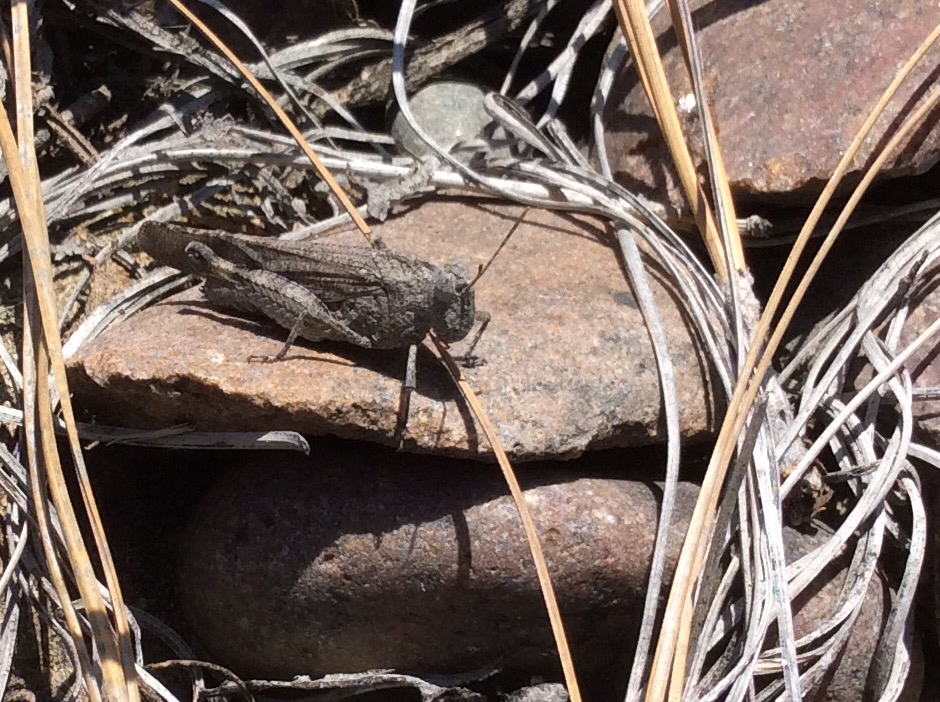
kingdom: Animalia
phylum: Arthropoda
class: Insecta
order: Orthoptera
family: Acrididae
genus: Lactista
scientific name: Lactista gibbosus
